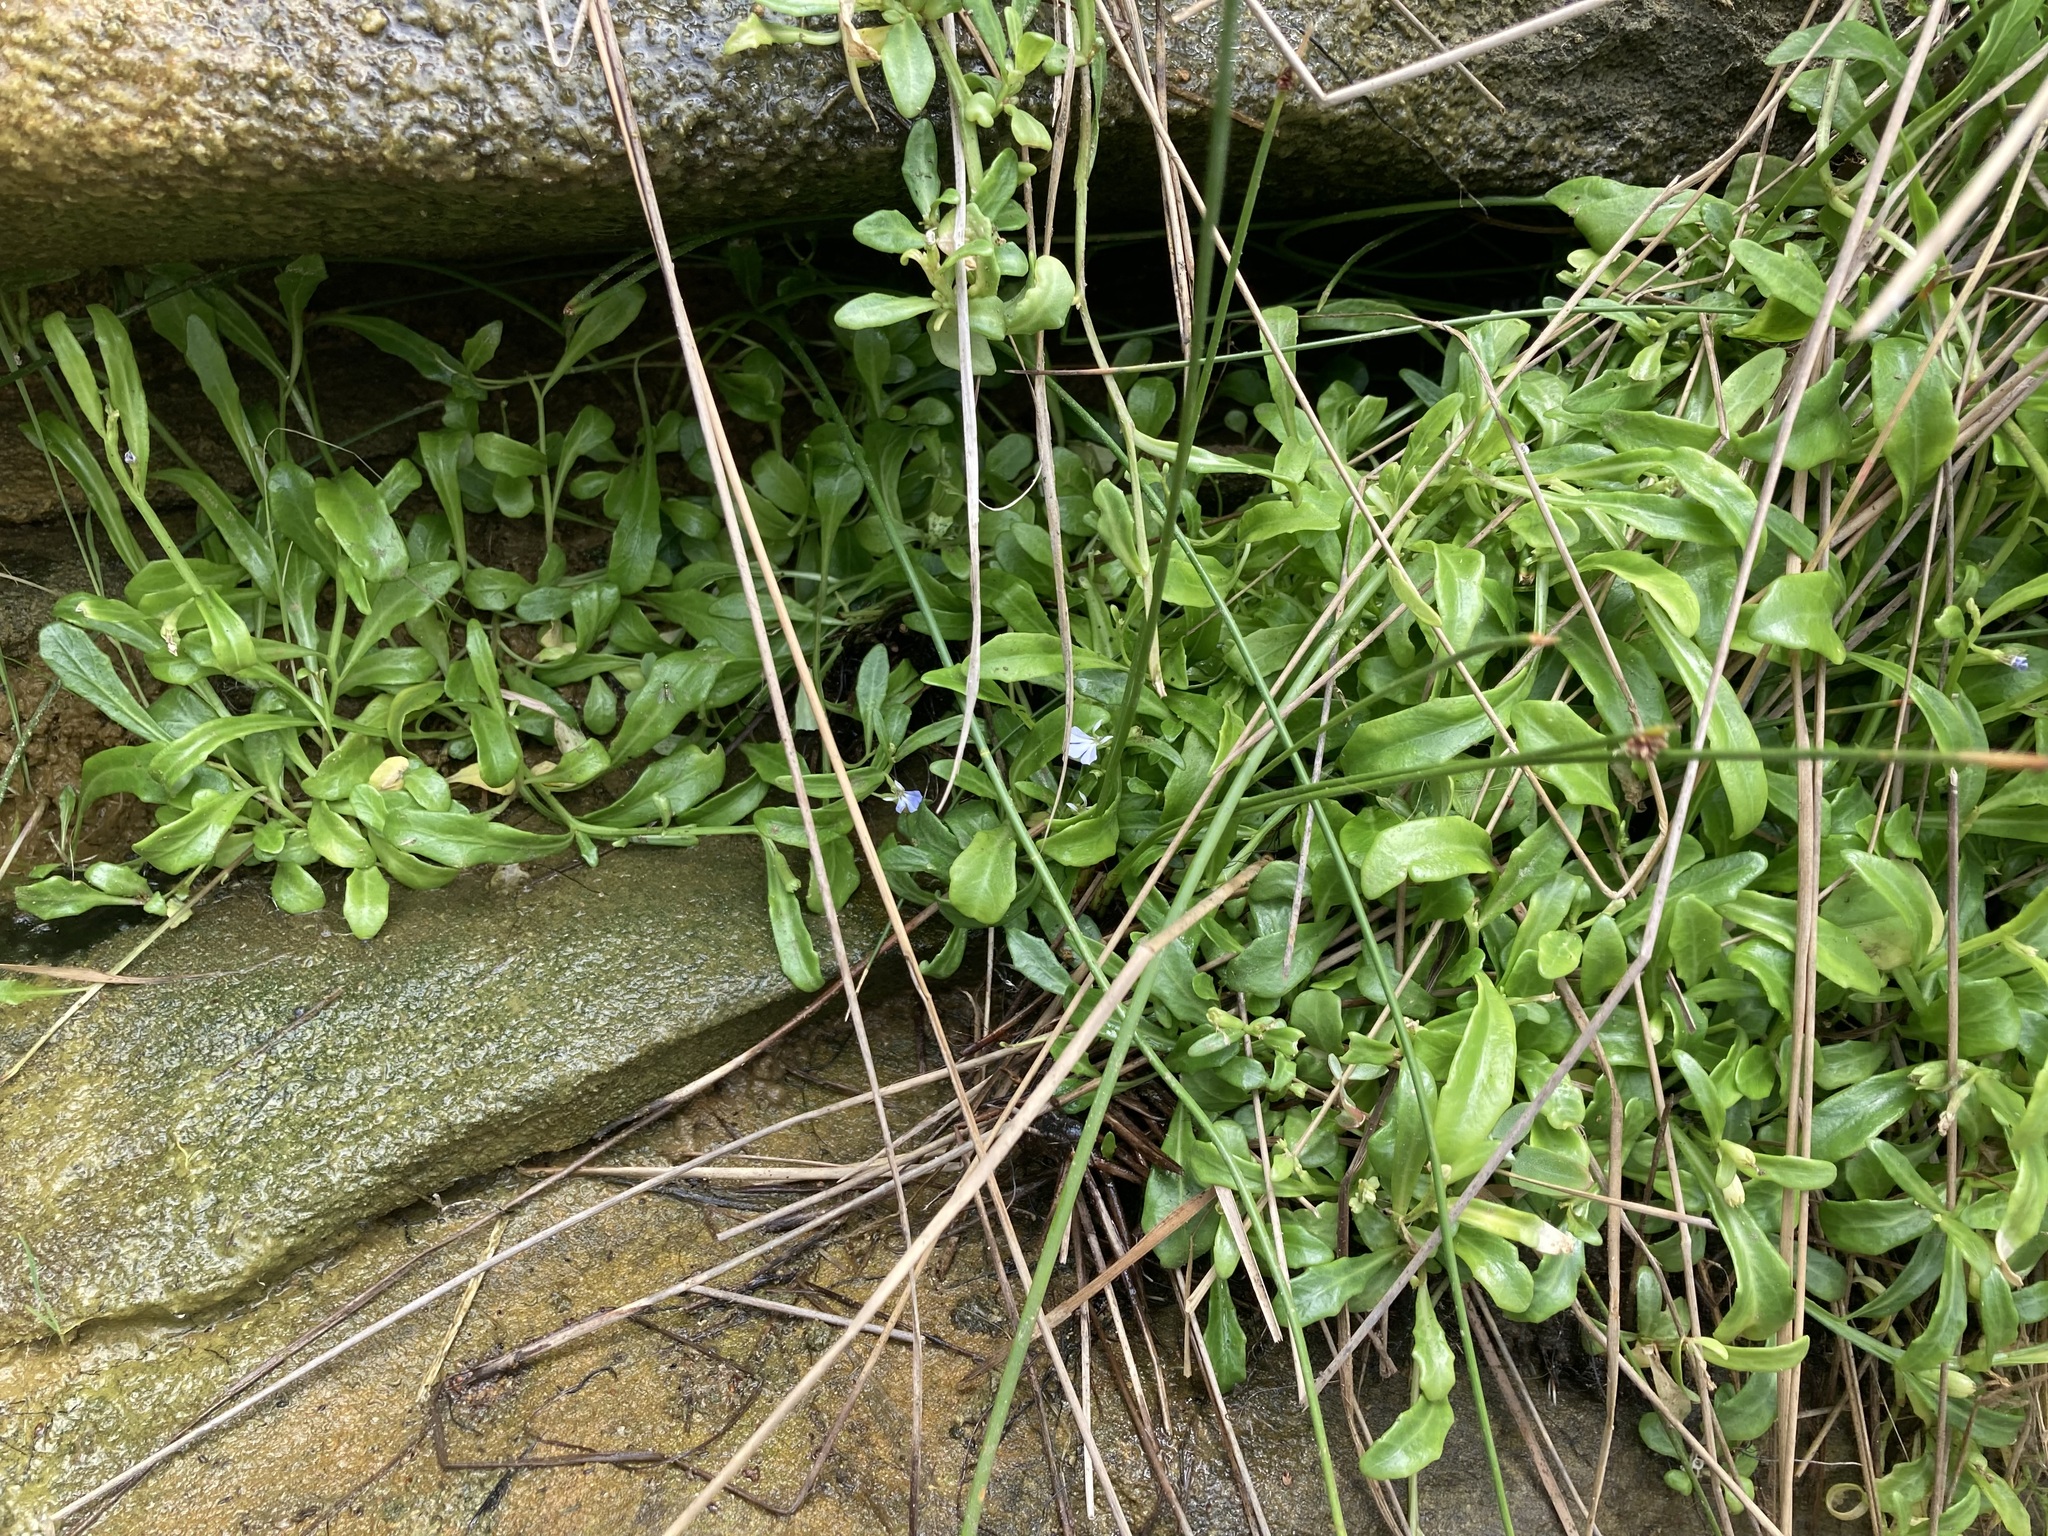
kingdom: Plantae
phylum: Tracheophyta
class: Magnoliopsida
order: Asterales
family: Campanulaceae
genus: Lobelia
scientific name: Lobelia anceps
